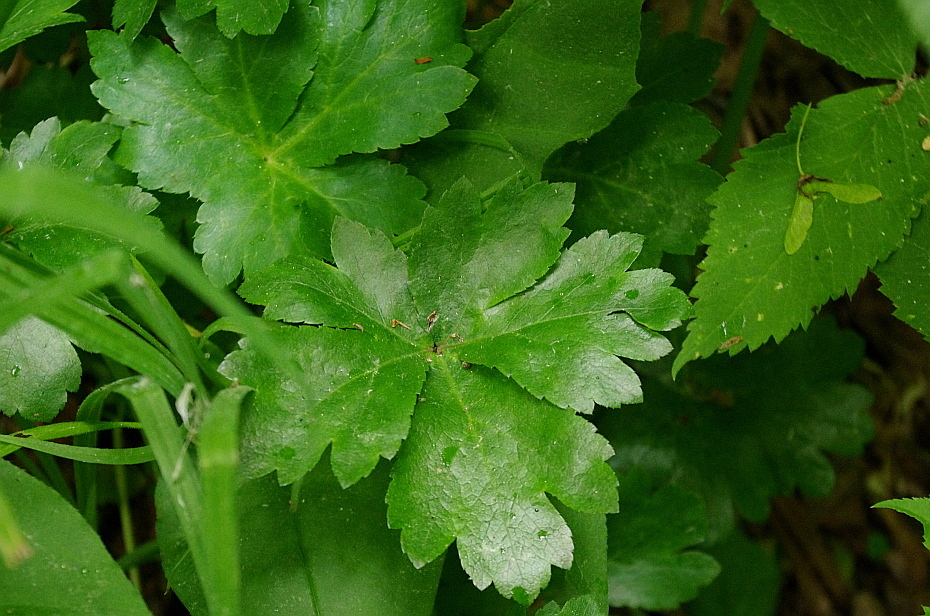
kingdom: Plantae
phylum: Tracheophyta
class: Magnoliopsida
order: Apiales
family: Apiaceae
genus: Sanicula
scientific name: Sanicula europaea
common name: Sanicle
